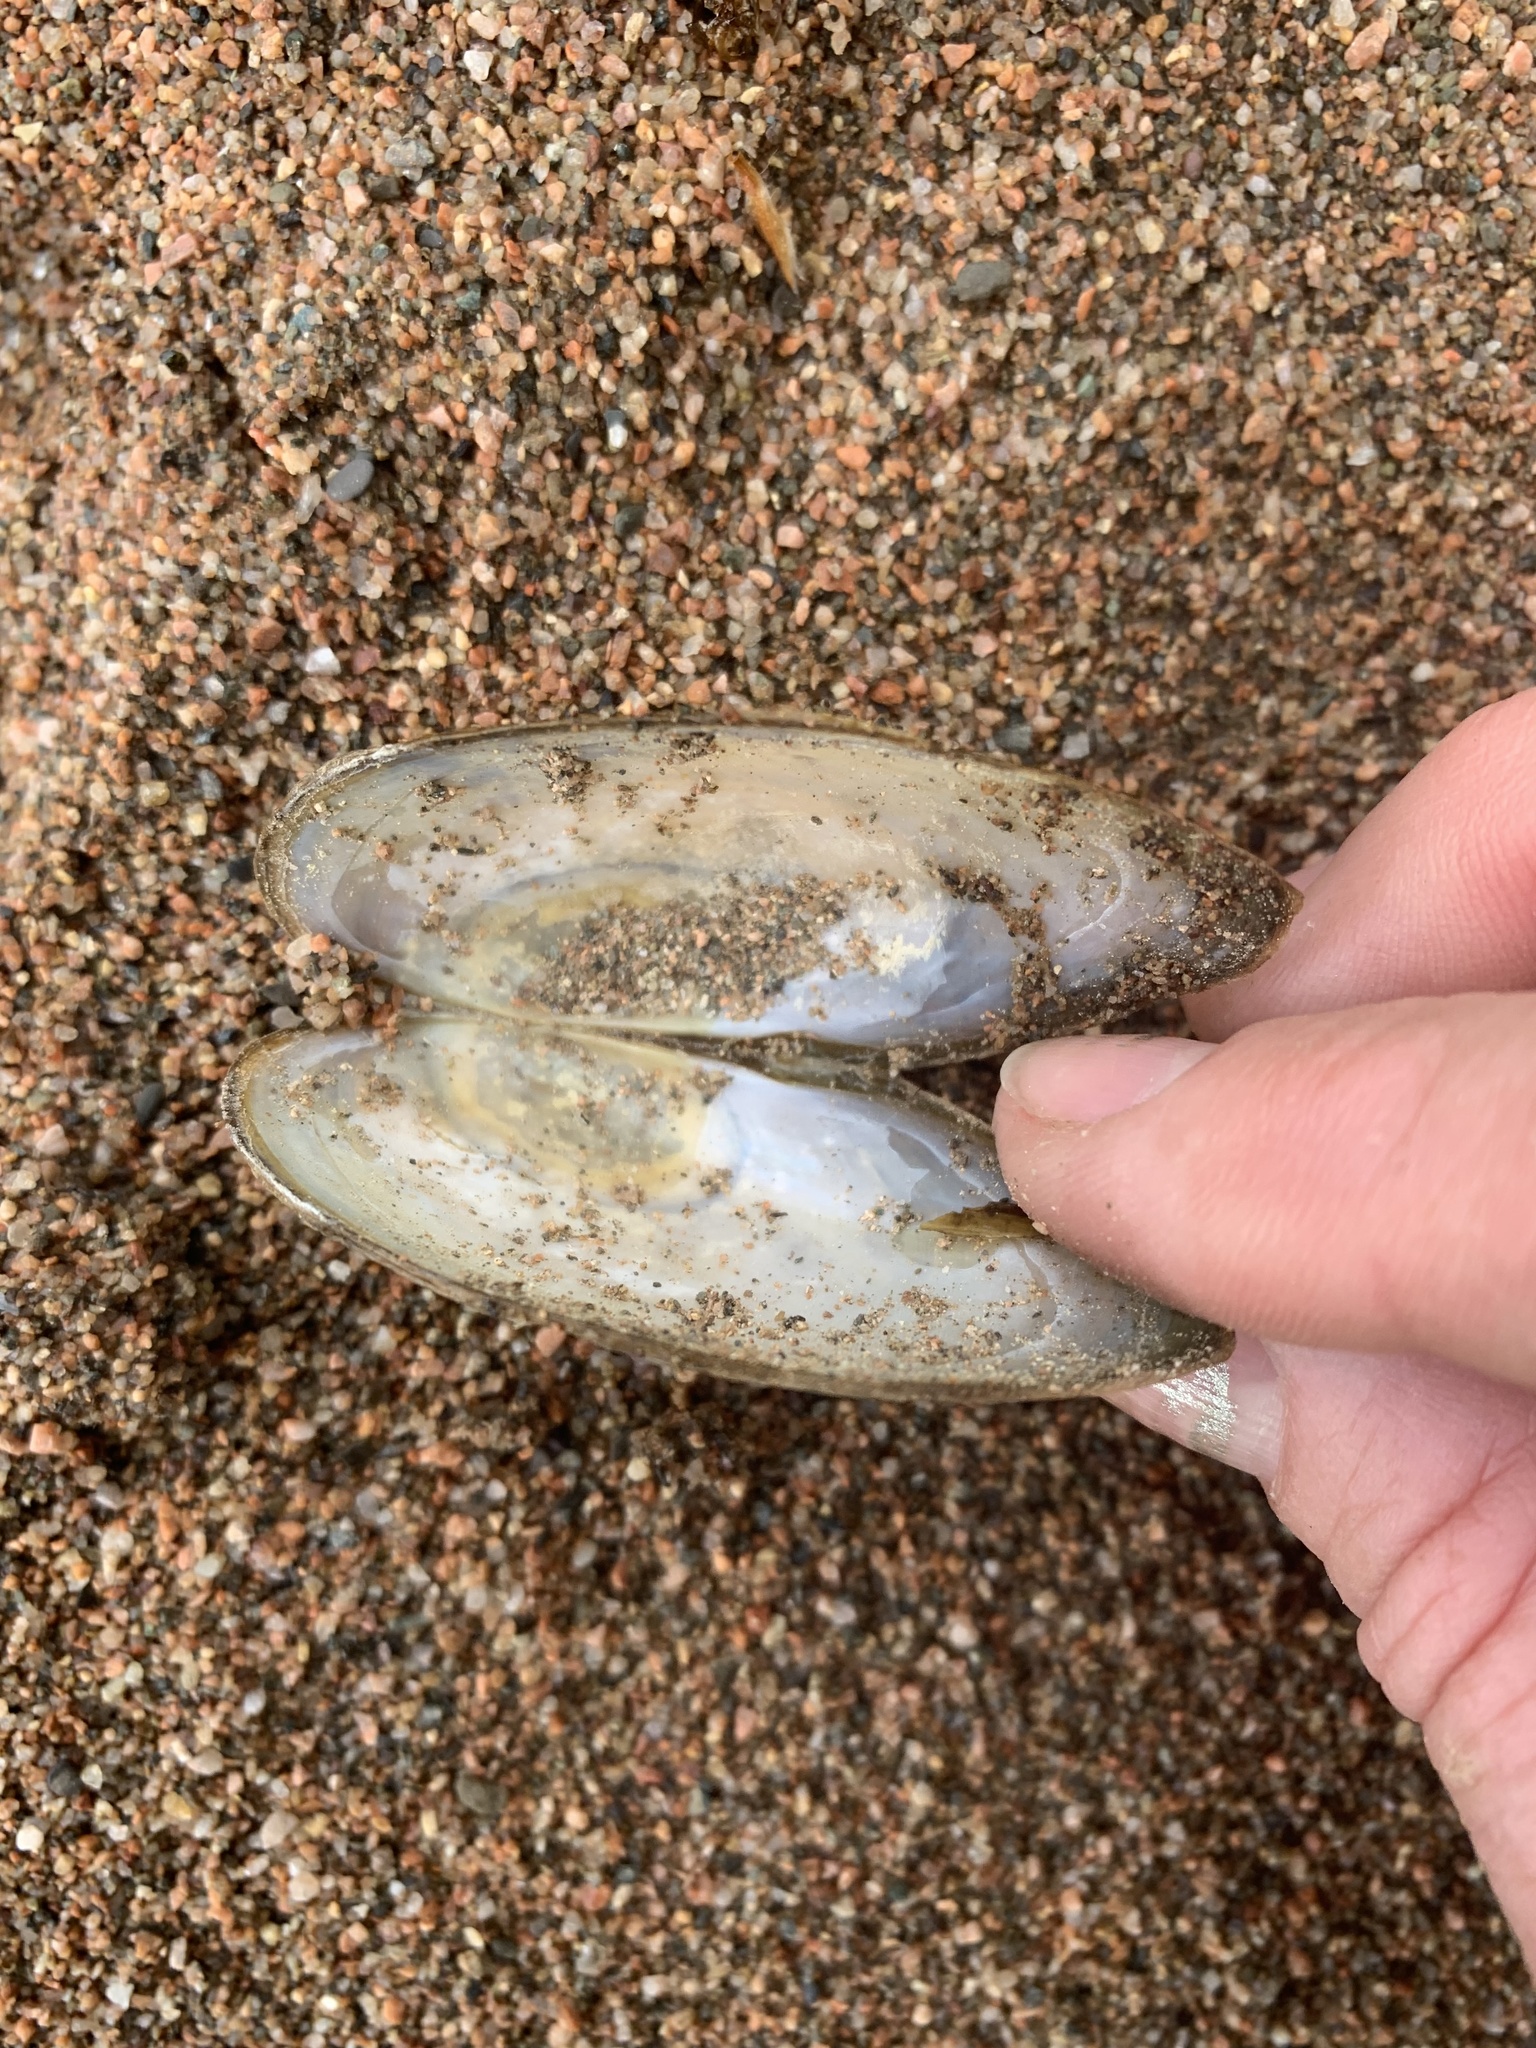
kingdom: Animalia
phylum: Mollusca
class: Bivalvia
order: Unionida
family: Unionidae
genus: Pyganodon
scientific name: Pyganodon cataracta
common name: Eastern floater
